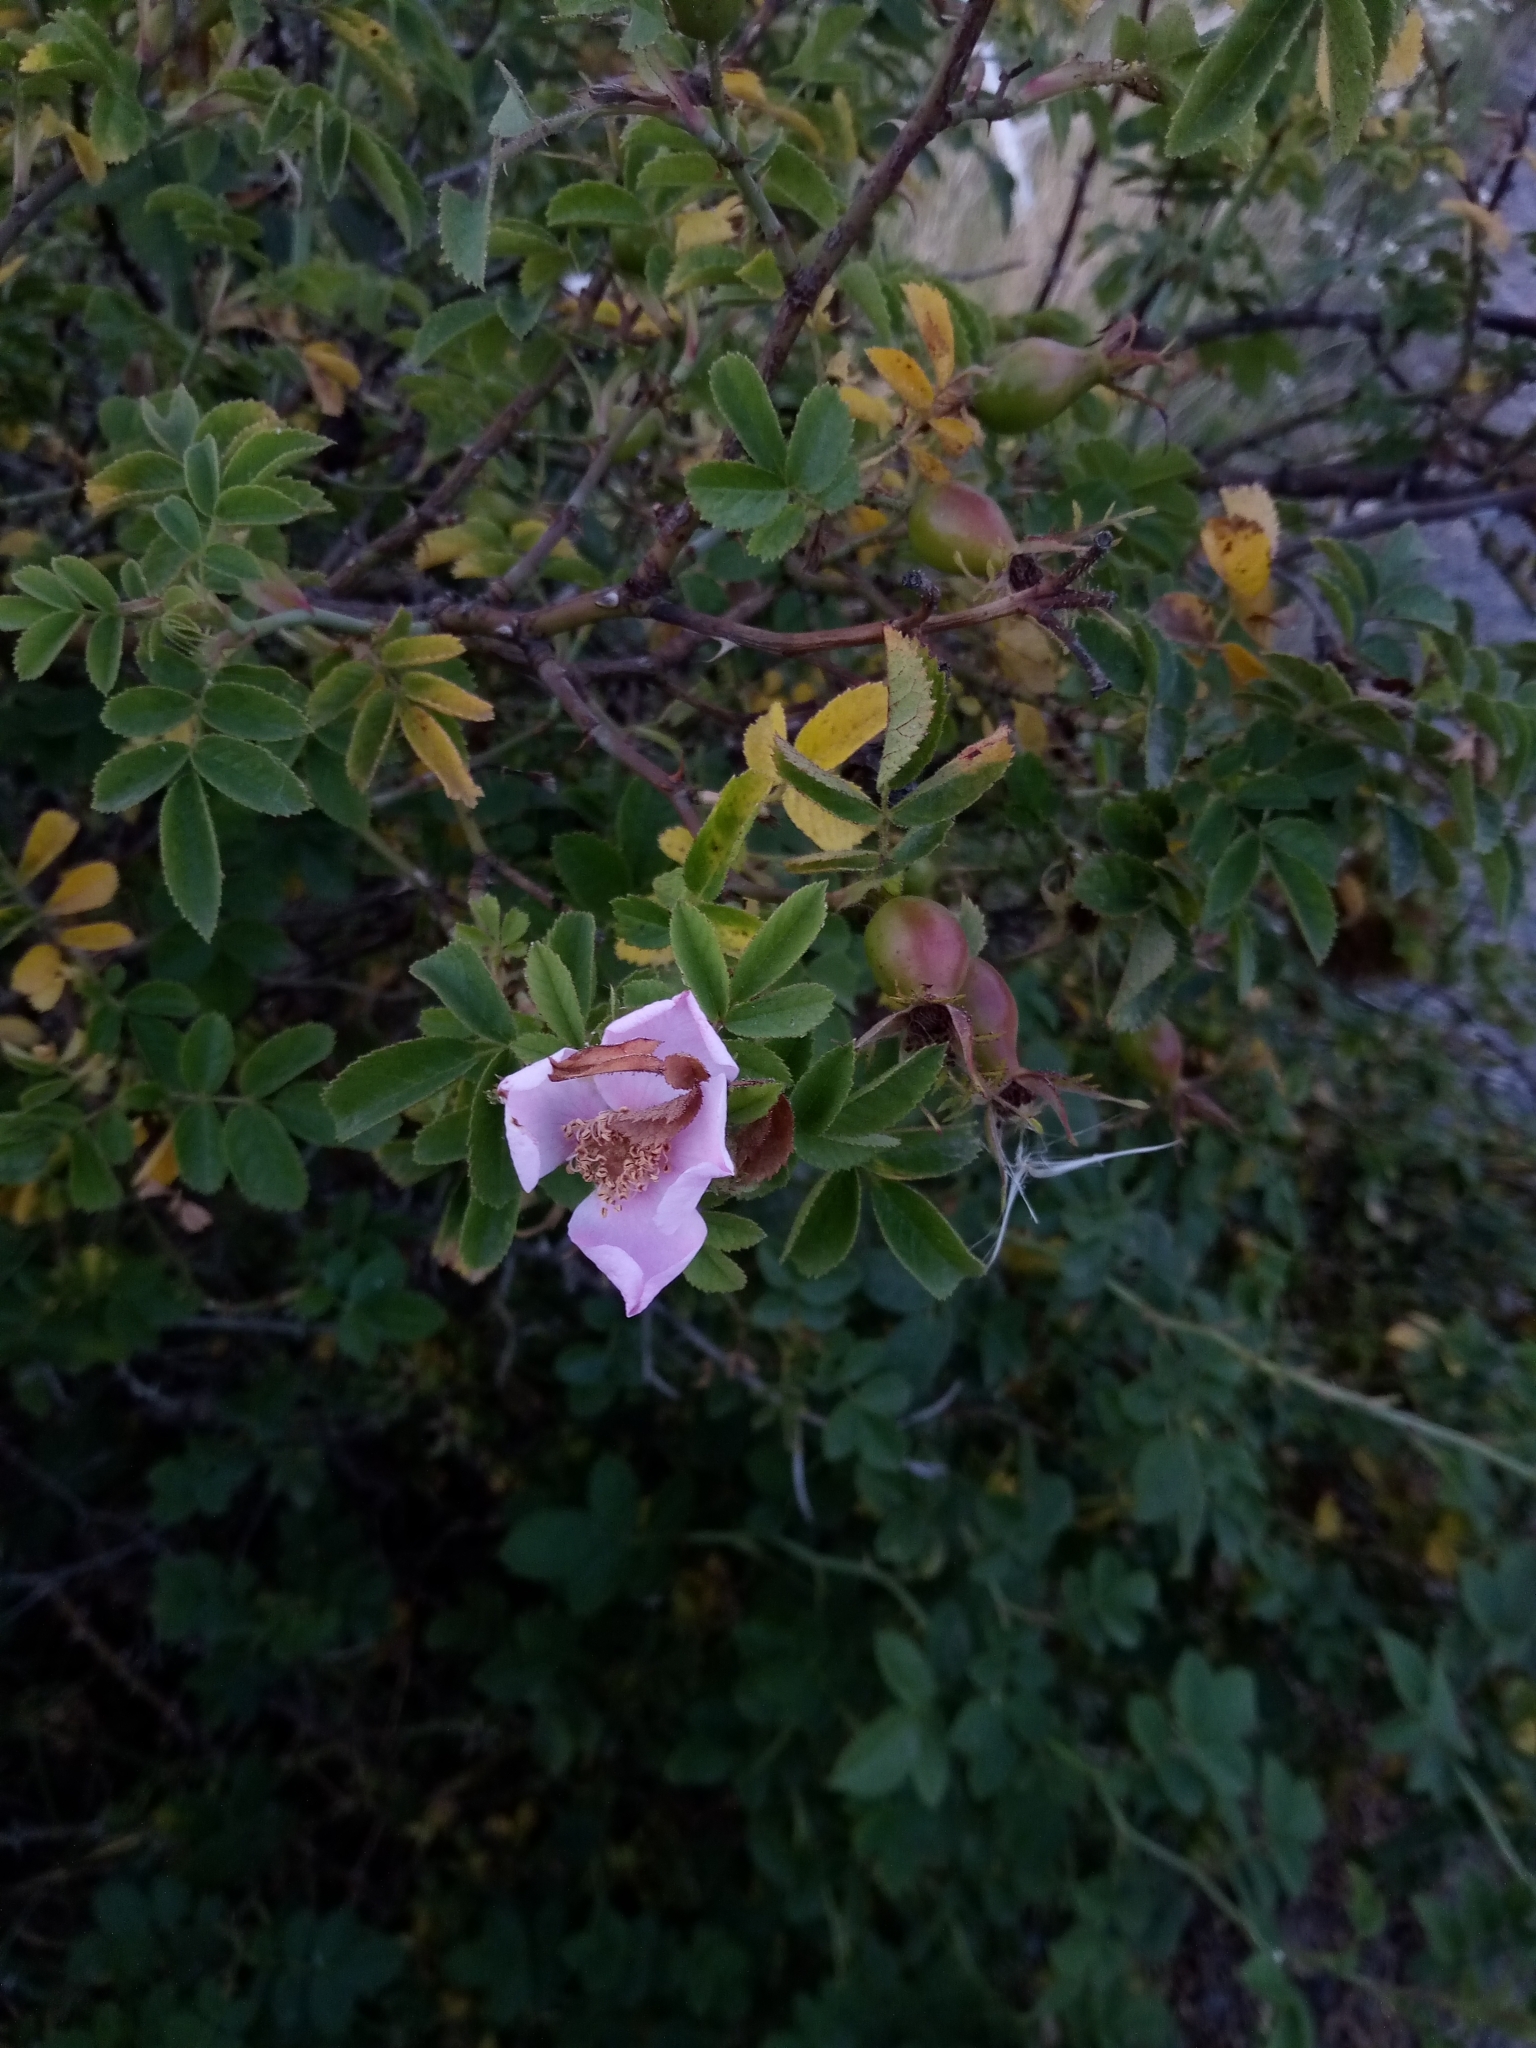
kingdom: Plantae
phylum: Tracheophyta
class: Magnoliopsida
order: Rosales
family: Rosaceae
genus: Rosa
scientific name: Rosa rubiginosa
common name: Sweet-briar
